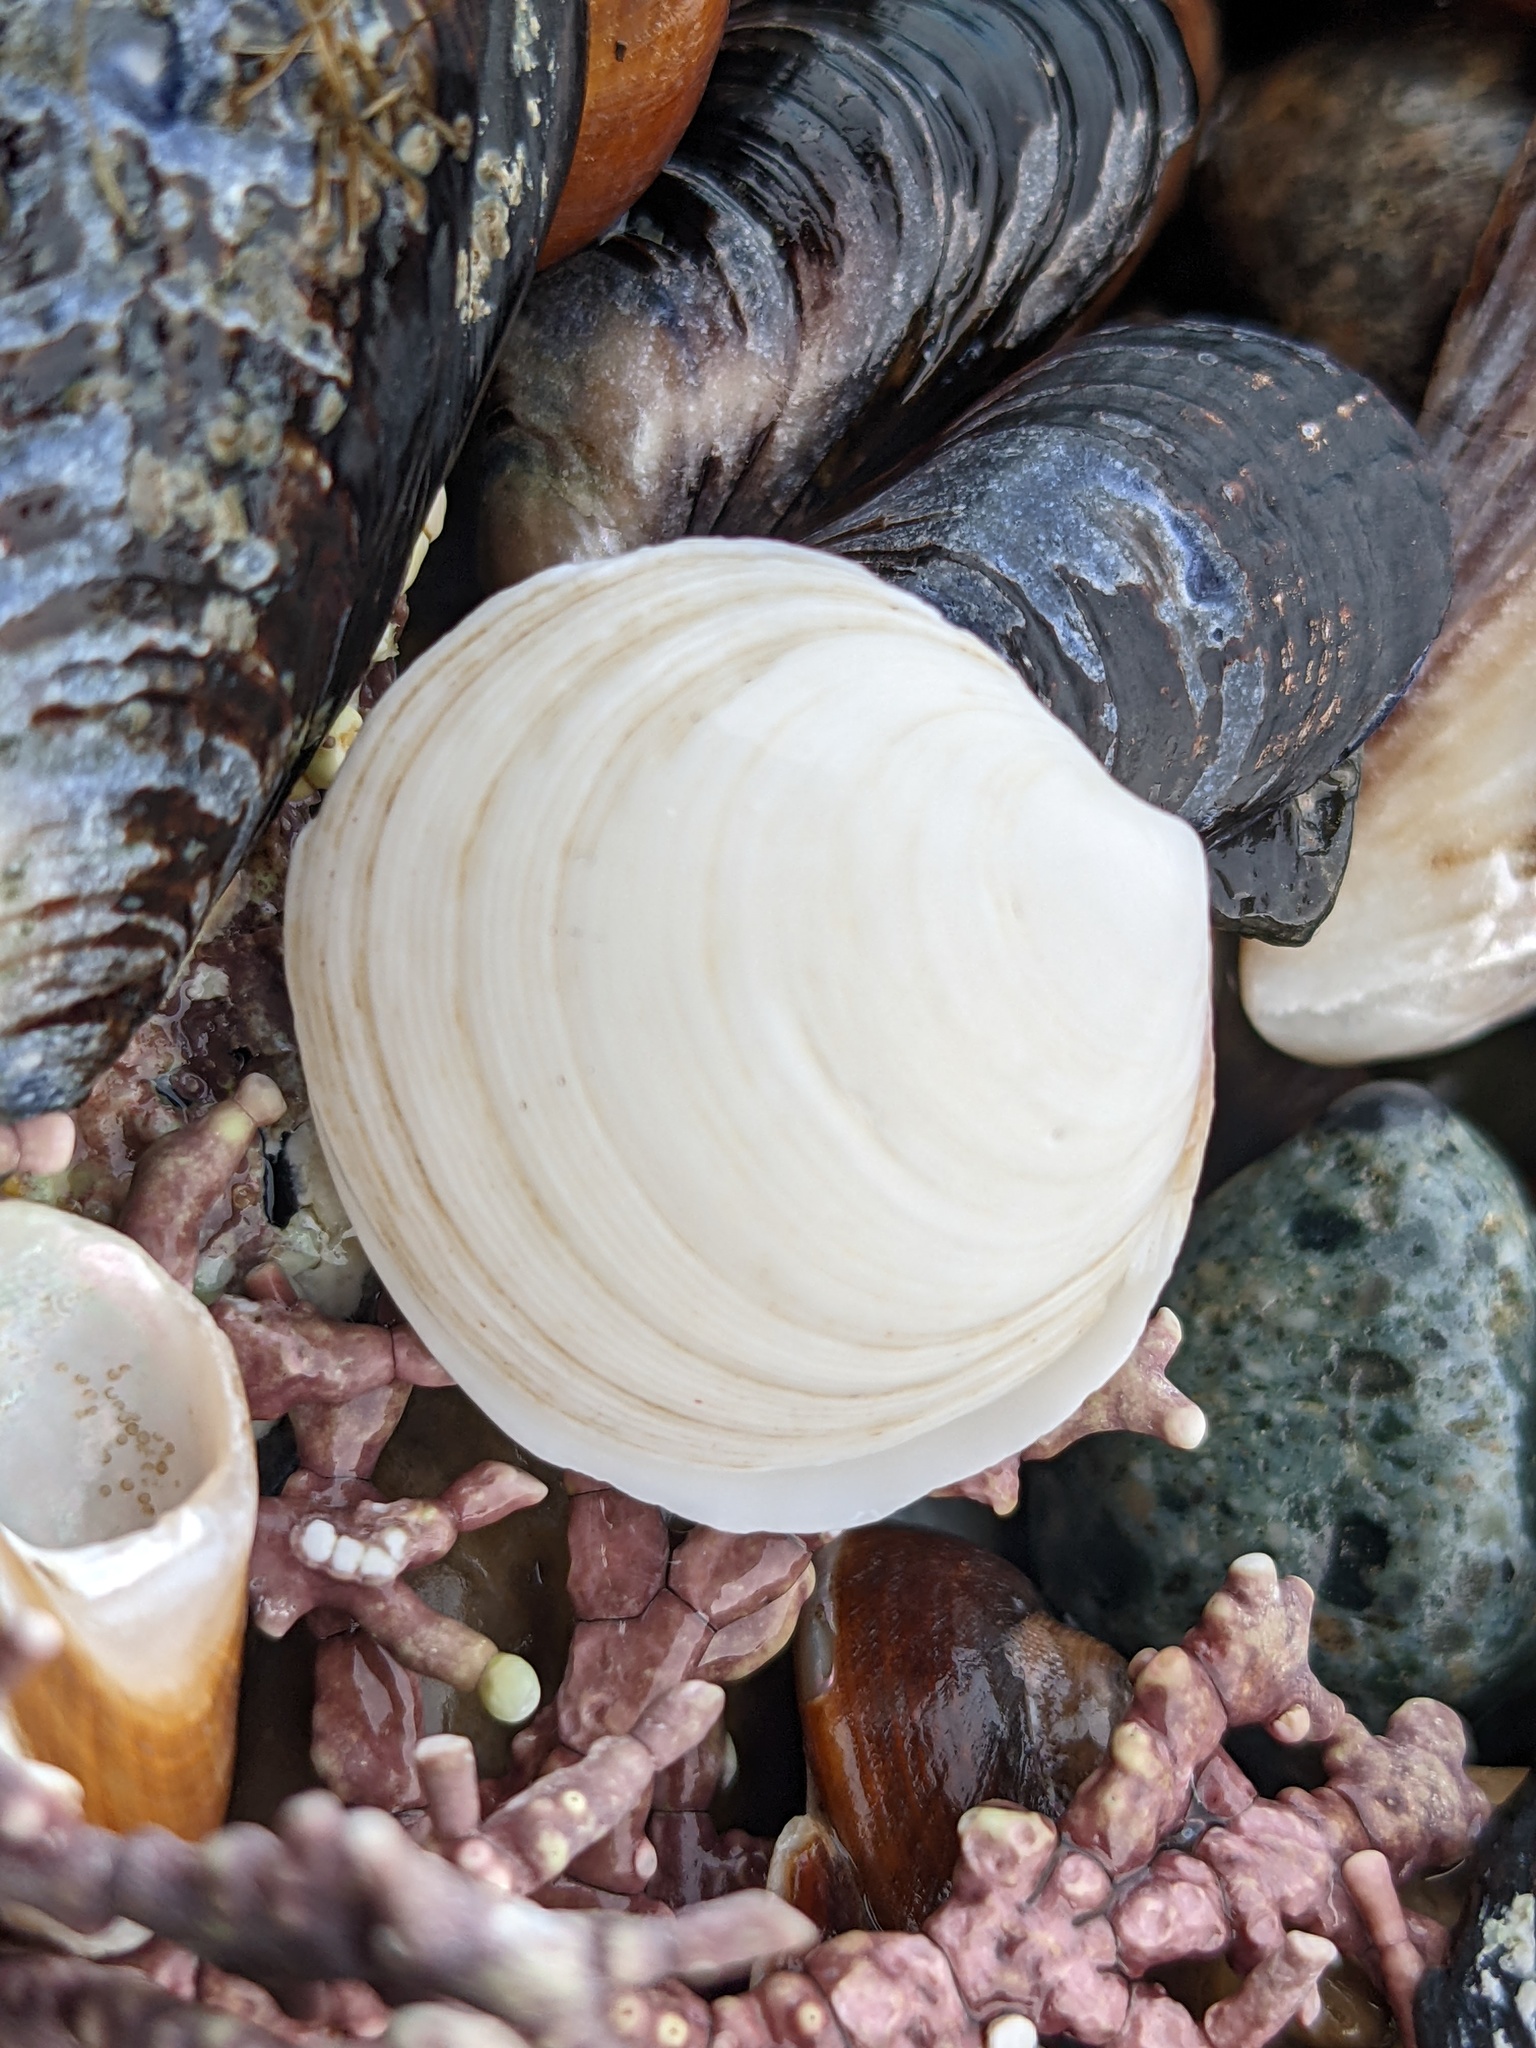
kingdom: Animalia
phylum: Mollusca
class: Bivalvia
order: Lucinida
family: Lucinidae
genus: Epilucina
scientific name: Epilucina californica
